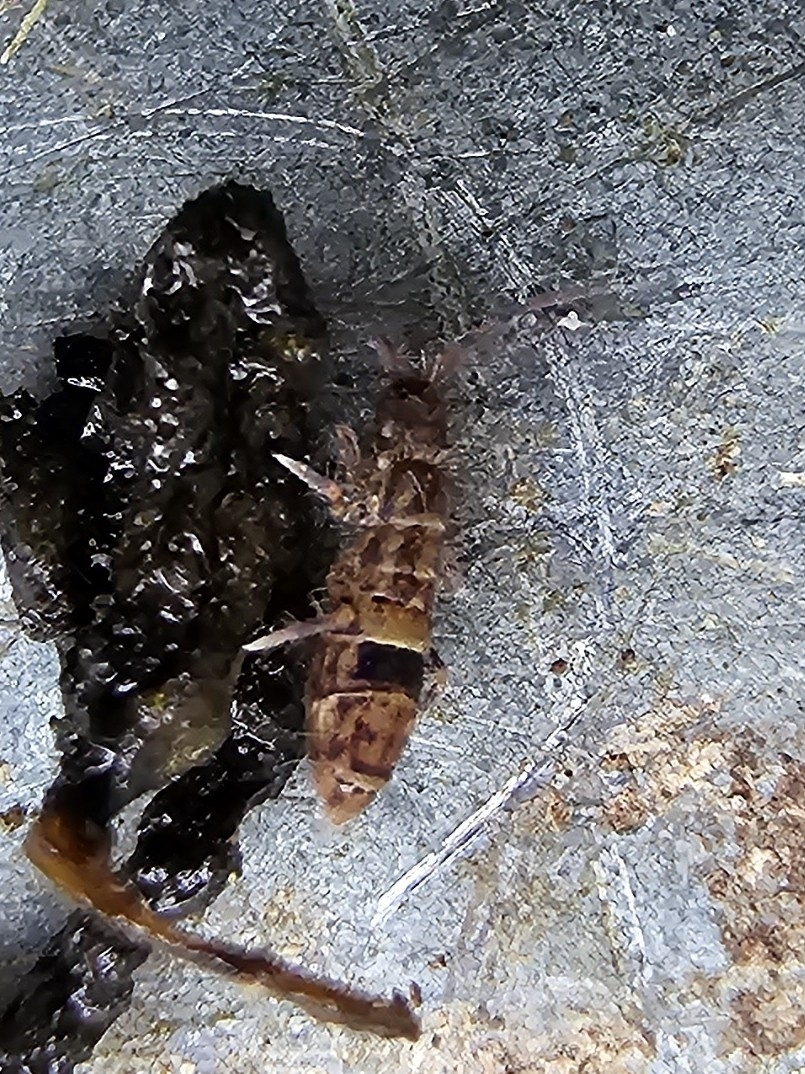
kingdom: Animalia
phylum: Arthropoda
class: Collembola
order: Entomobryomorpha
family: Orchesellidae
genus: Orchesella
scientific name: Orchesella cincta
